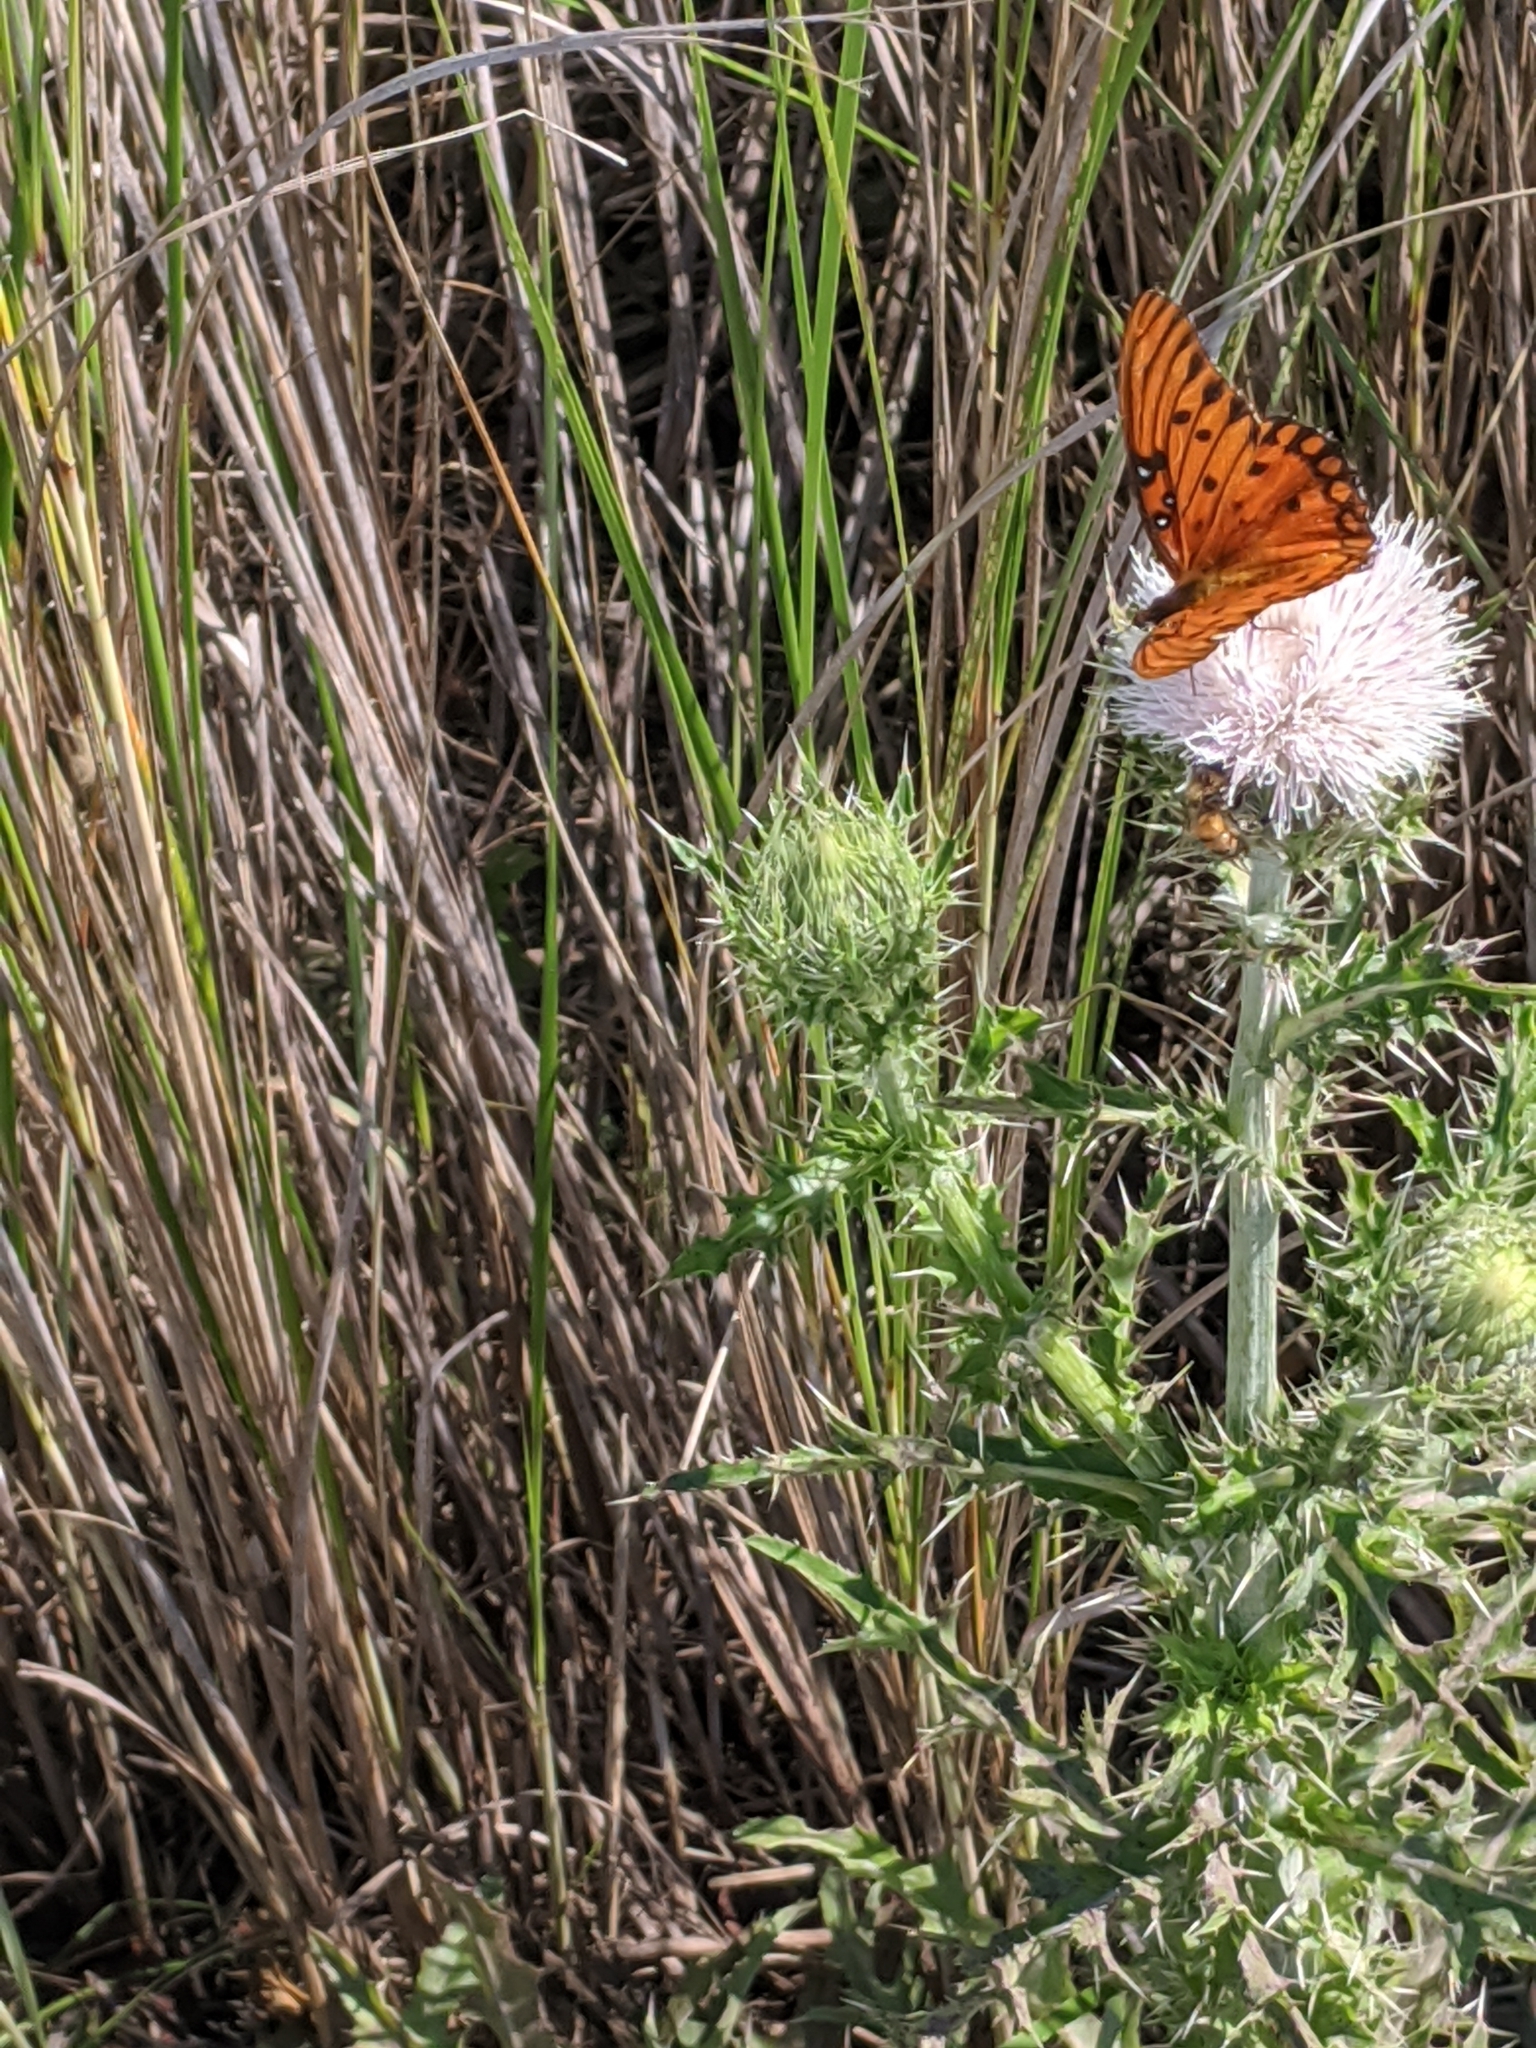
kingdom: Animalia
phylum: Arthropoda
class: Insecta
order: Lepidoptera
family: Nymphalidae
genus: Dione
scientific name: Dione vanillae
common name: Gulf fritillary
